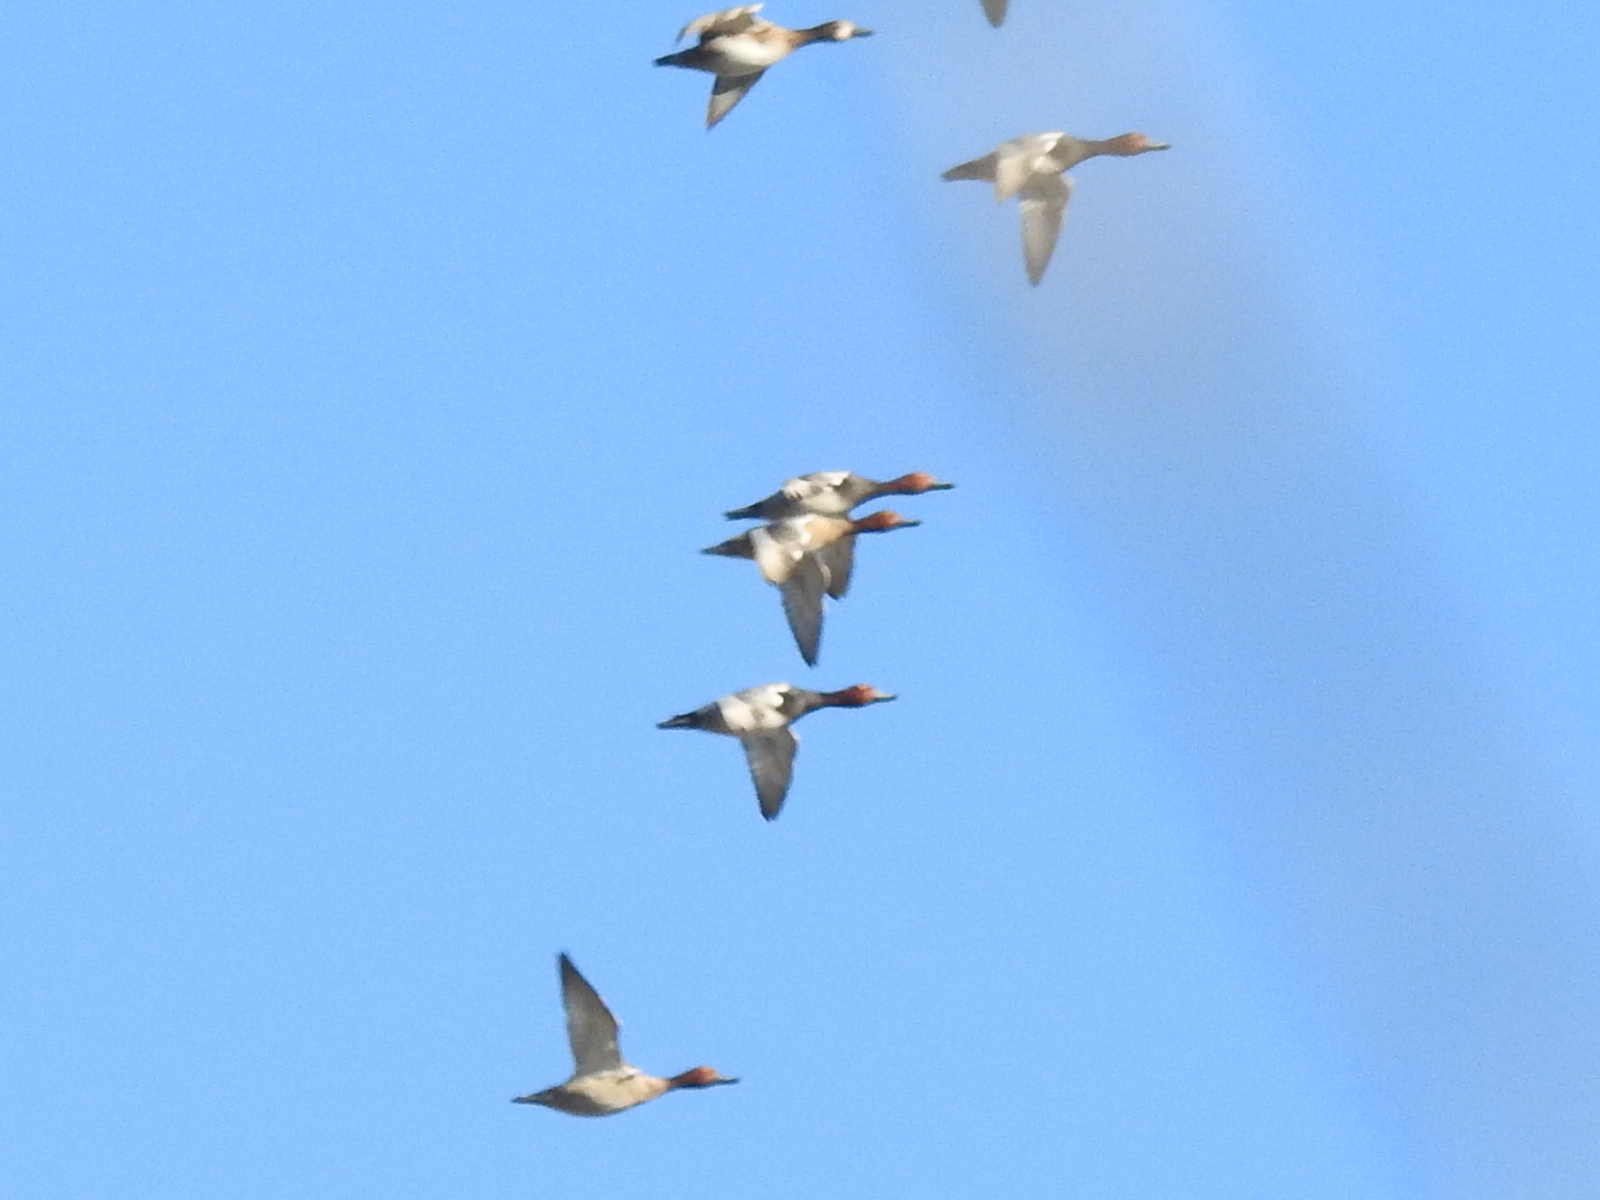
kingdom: Animalia
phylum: Chordata
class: Aves
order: Anseriformes
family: Anatidae
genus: Aythya
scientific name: Aythya americana
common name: Redhead
